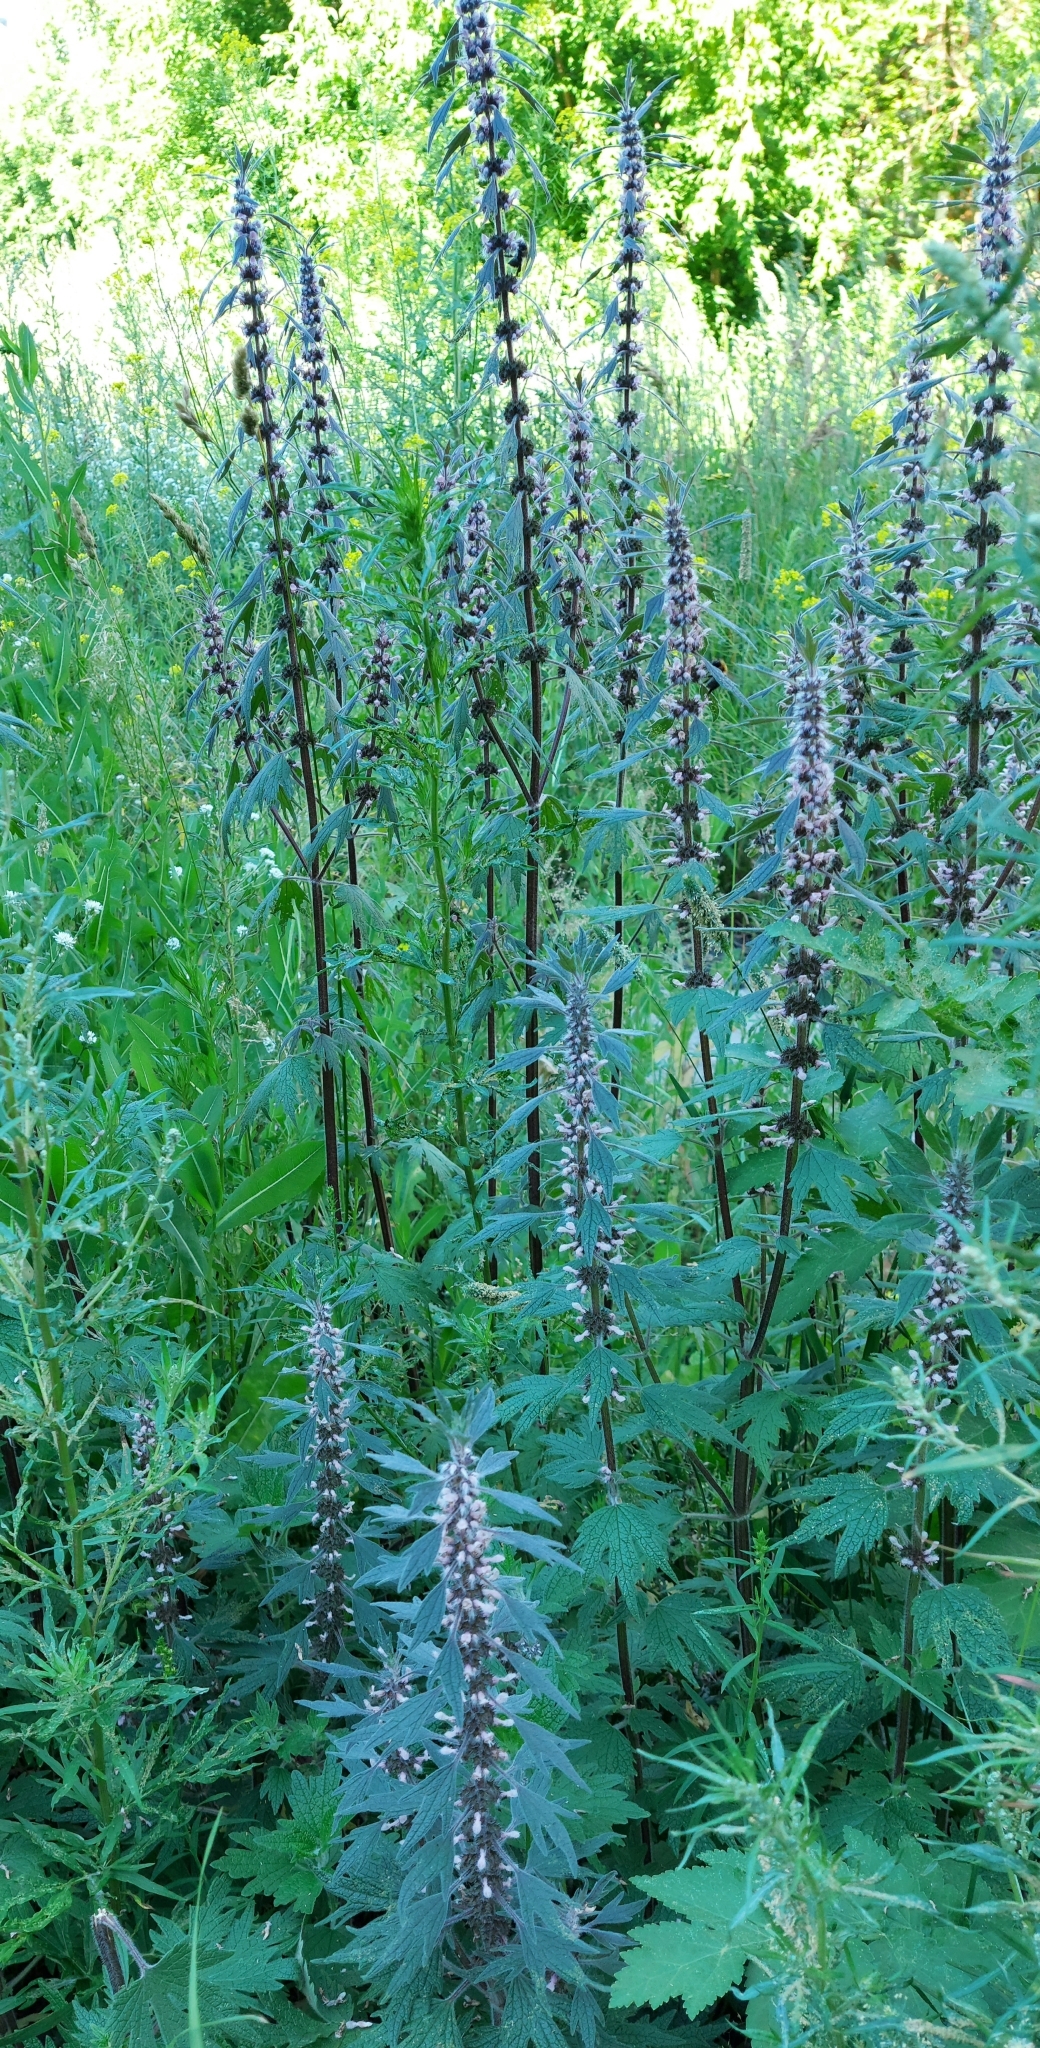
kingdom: Plantae
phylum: Tracheophyta
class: Magnoliopsida
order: Lamiales
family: Lamiaceae
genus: Leonurus
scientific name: Leonurus quinquelobatus
